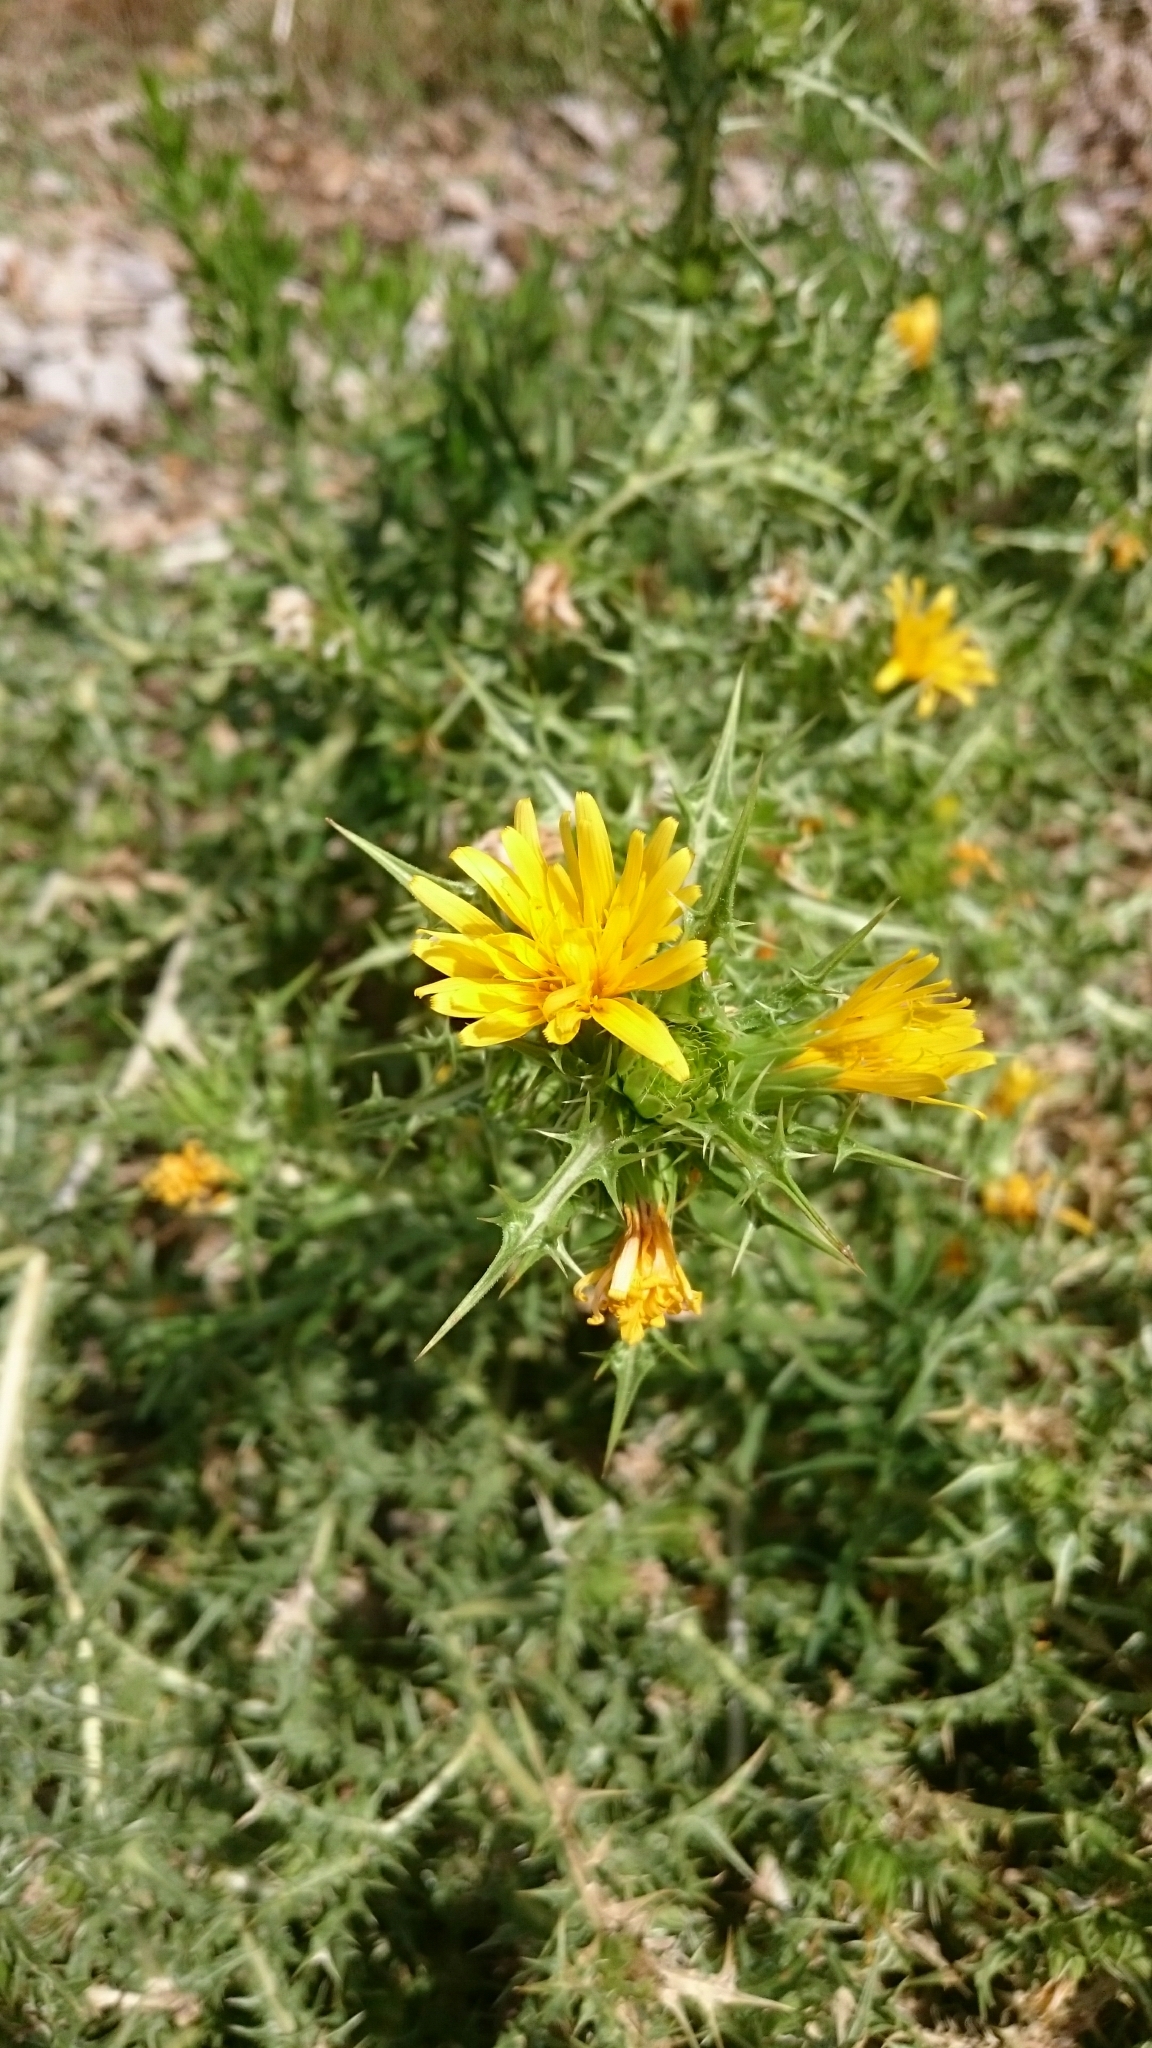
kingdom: Plantae
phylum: Tracheophyta
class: Magnoliopsida
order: Asterales
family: Asteraceae
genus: Scolymus
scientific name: Scolymus hispanicus
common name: Golden thistle
